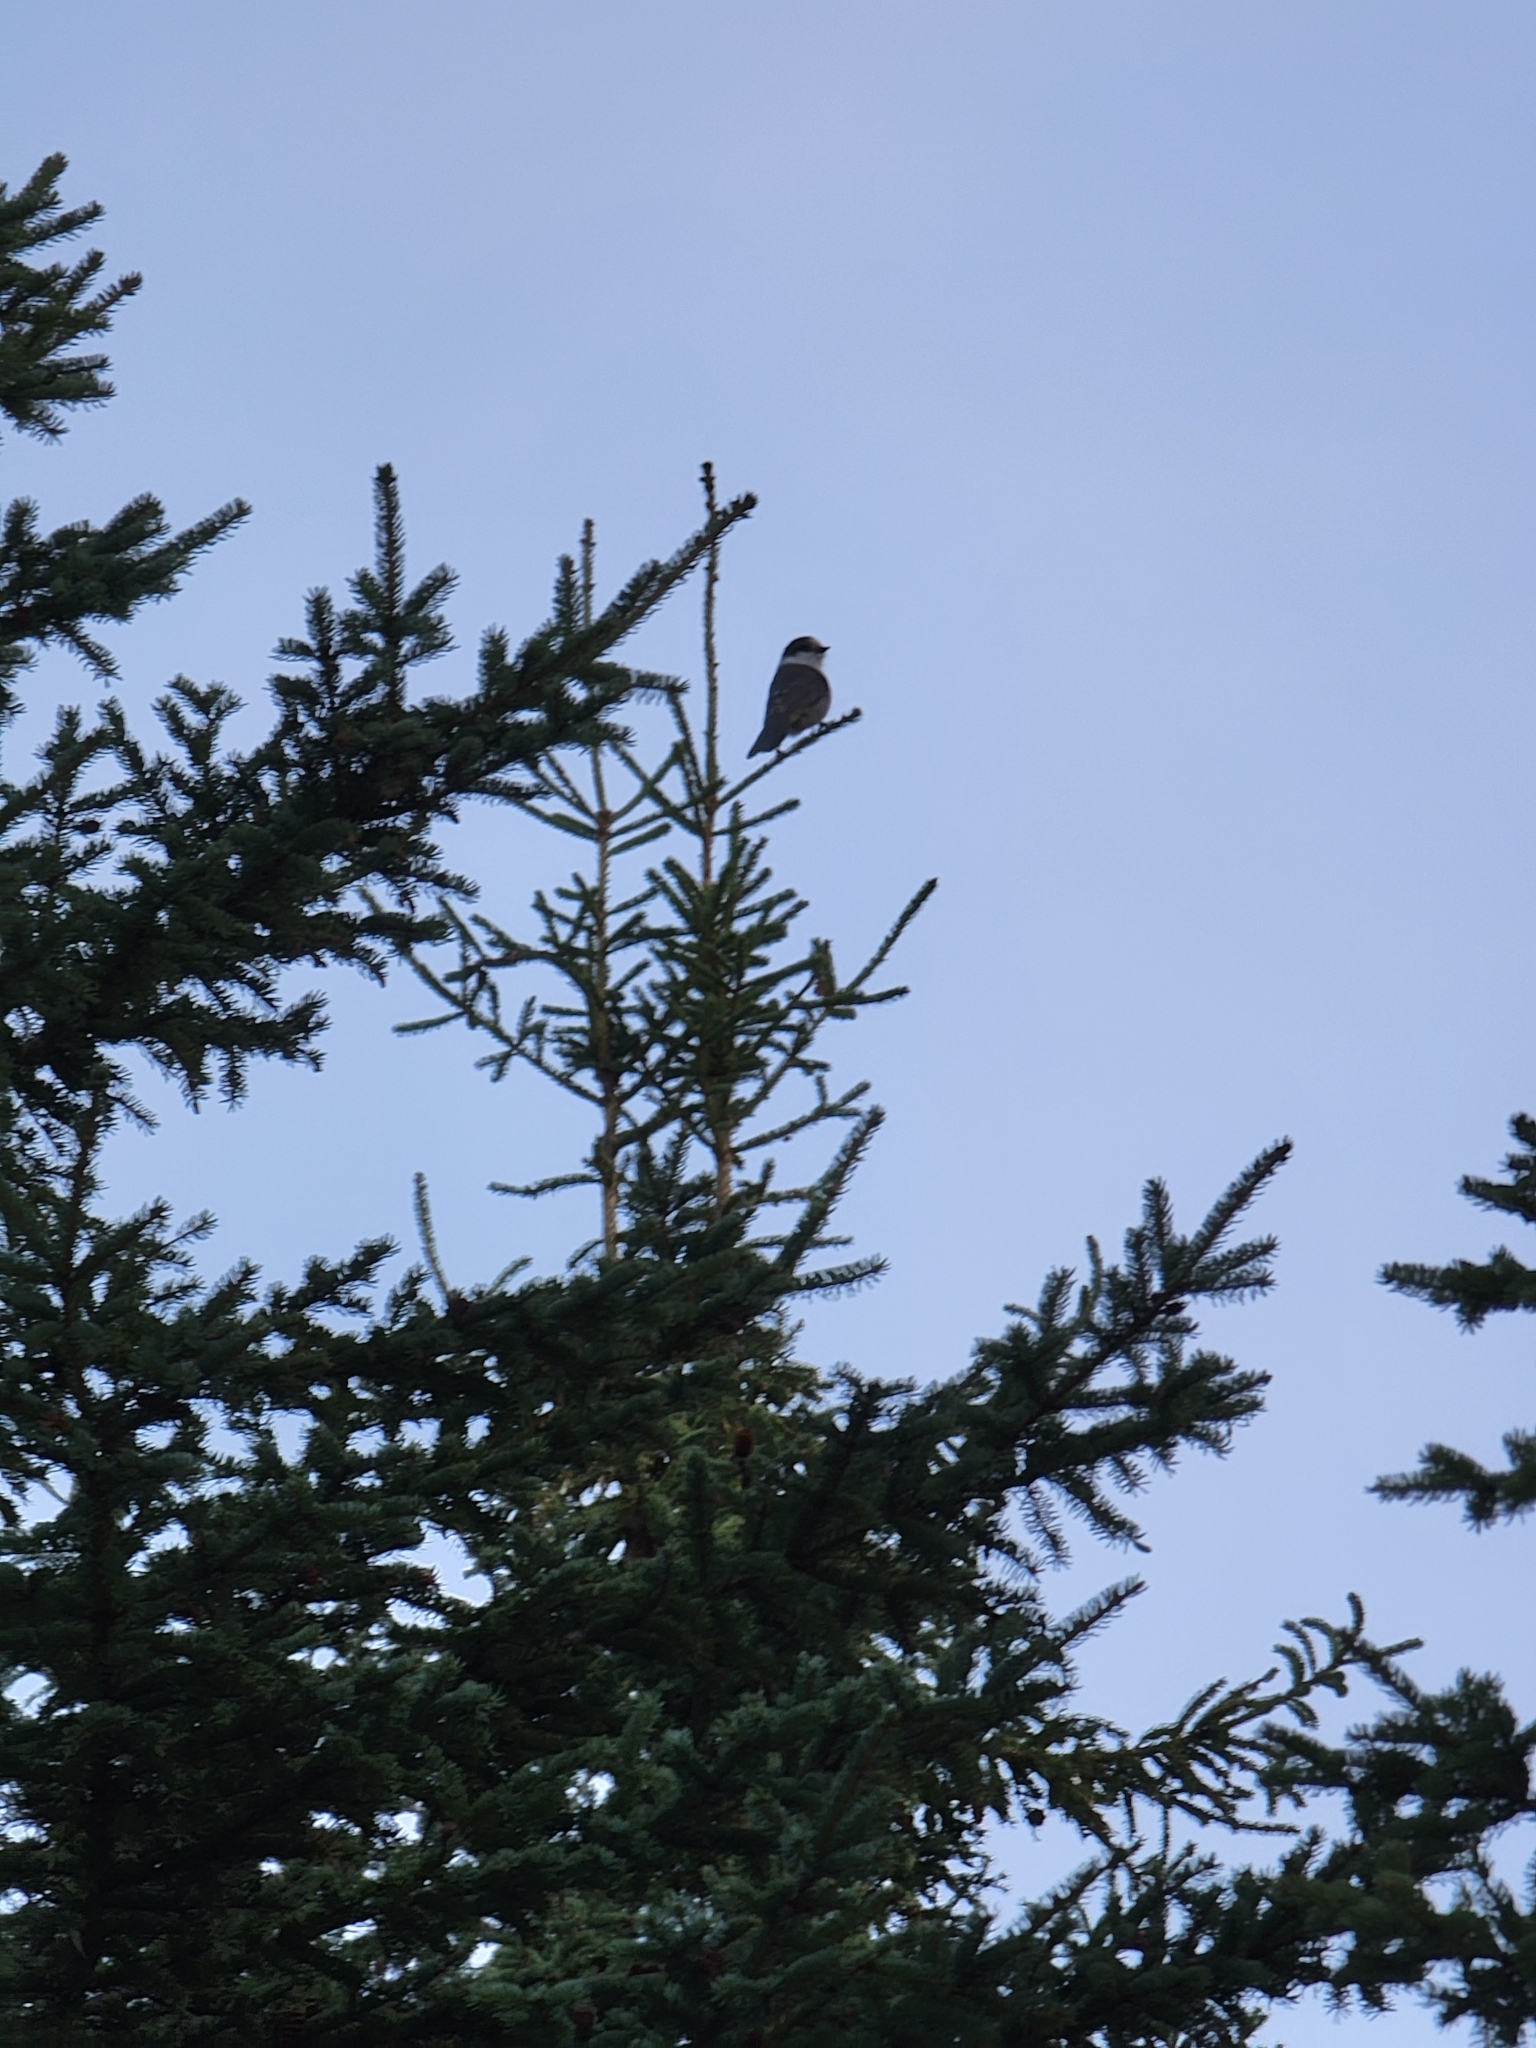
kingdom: Animalia
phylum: Chordata
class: Aves
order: Passeriformes
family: Corvidae
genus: Perisoreus
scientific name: Perisoreus canadensis
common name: Gray jay
